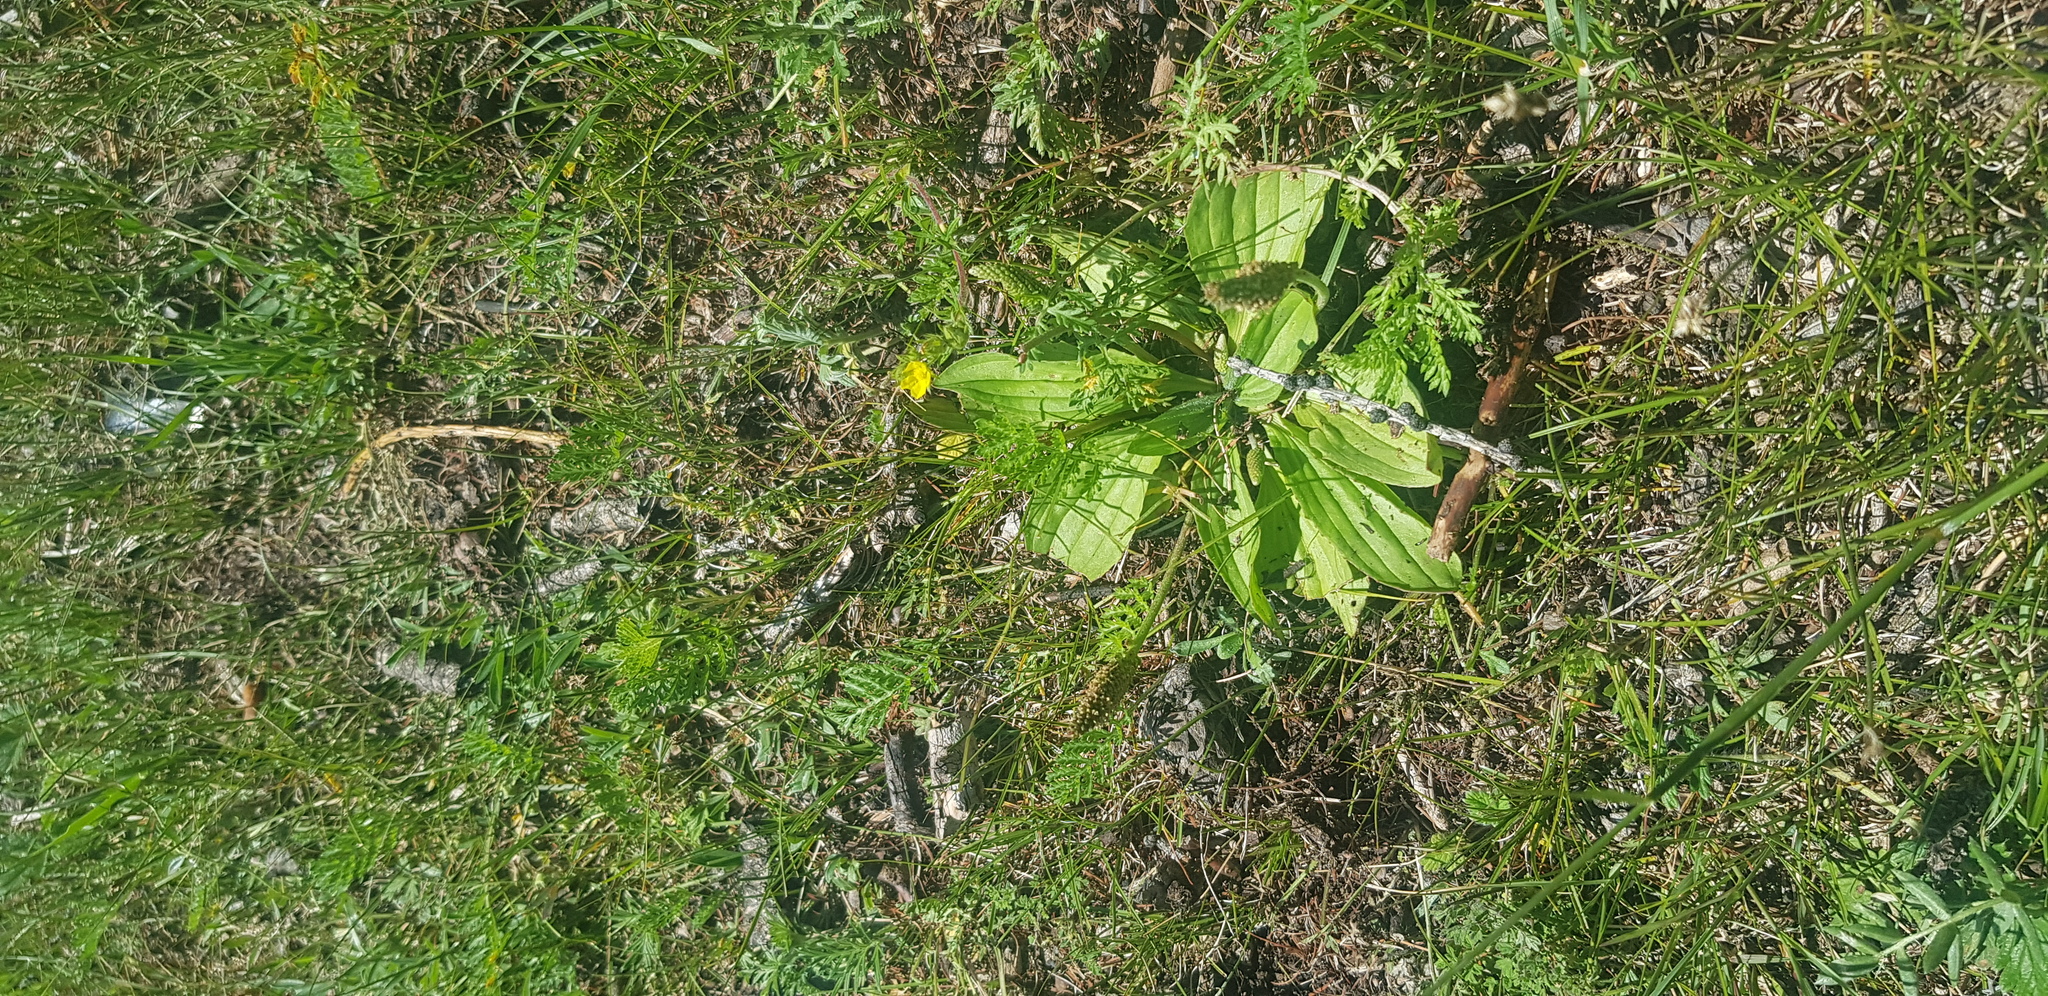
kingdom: Plantae
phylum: Tracheophyta
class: Magnoliopsida
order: Lamiales
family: Plantaginaceae
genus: Plantago
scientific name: Plantago media
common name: Hoary plantain
